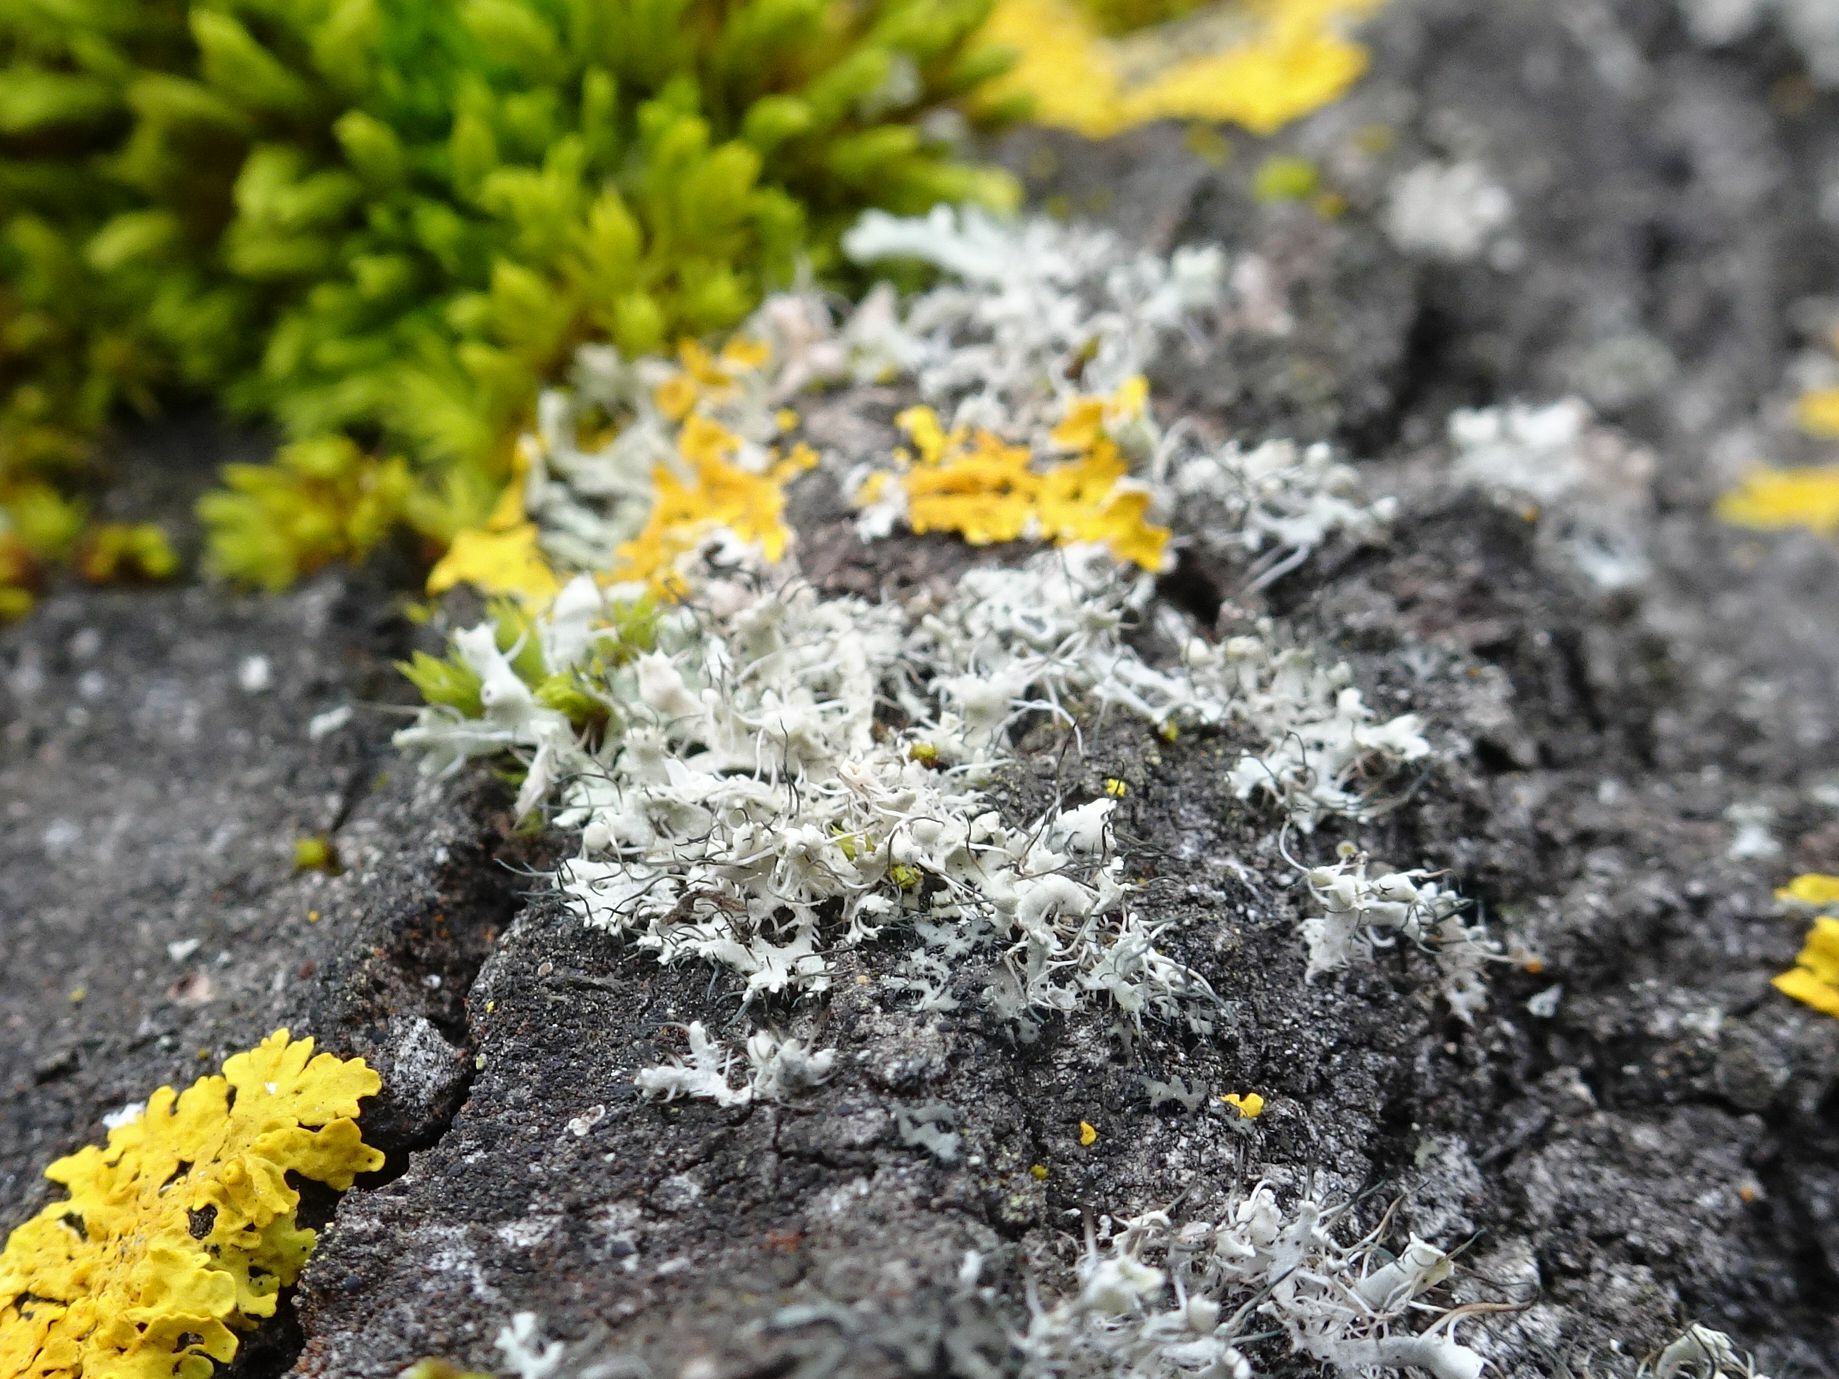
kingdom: Fungi
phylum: Ascomycota
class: Lecanoromycetes
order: Caliciales
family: Physciaceae
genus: Physcia
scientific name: Physcia adscendens
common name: Hooded rosette lichen
